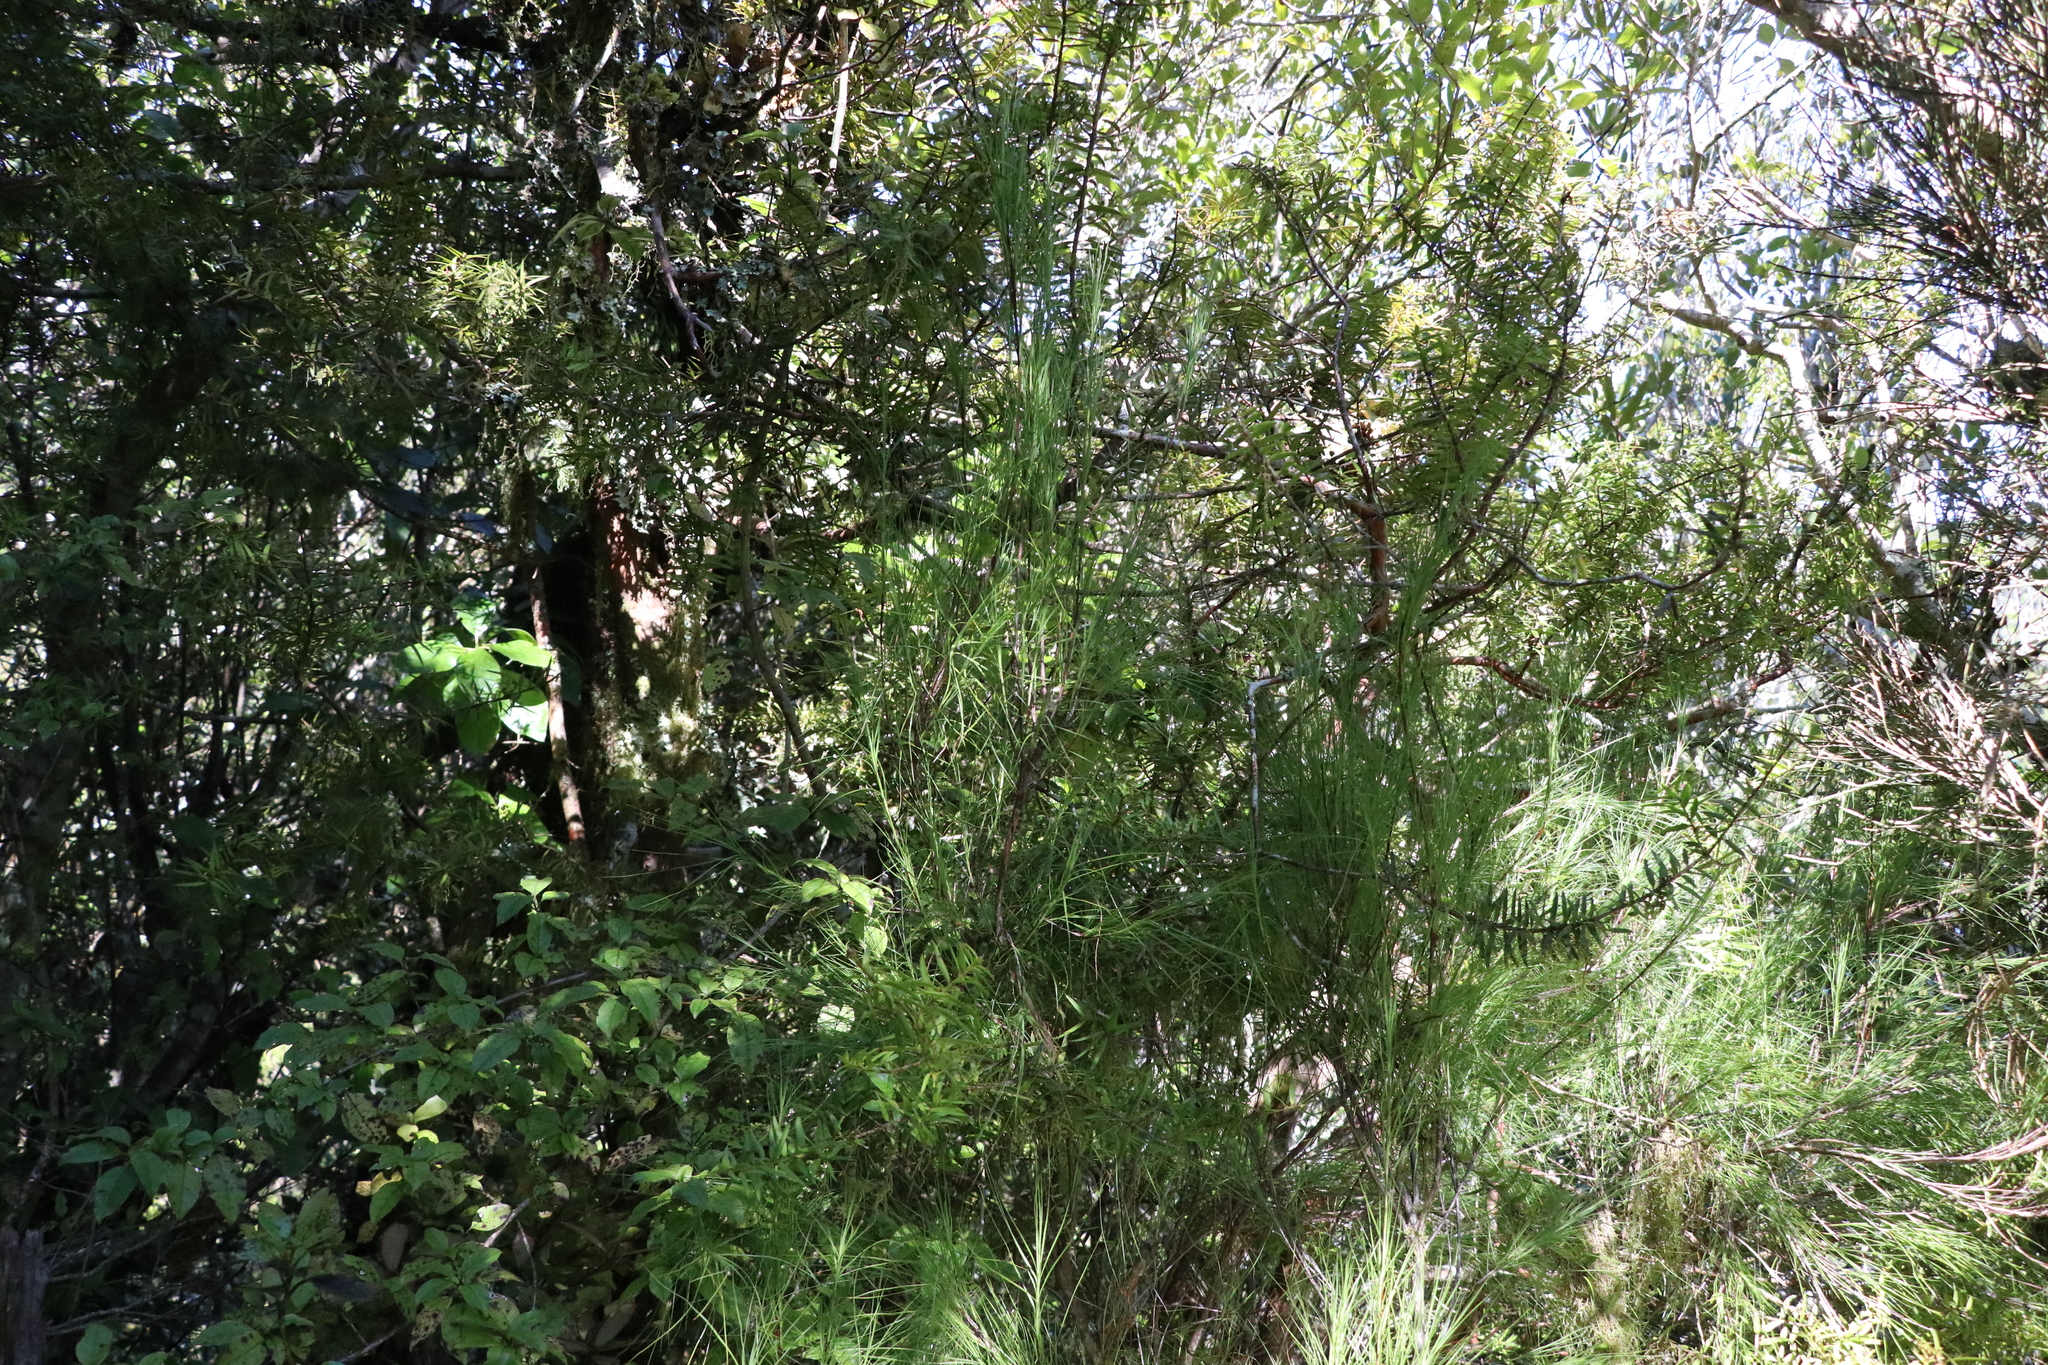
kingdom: Plantae
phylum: Tracheophyta
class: Magnoliopsida
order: Ericales
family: Ericaceae
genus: Dracophyllum
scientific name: Dracophyllum filifolium
